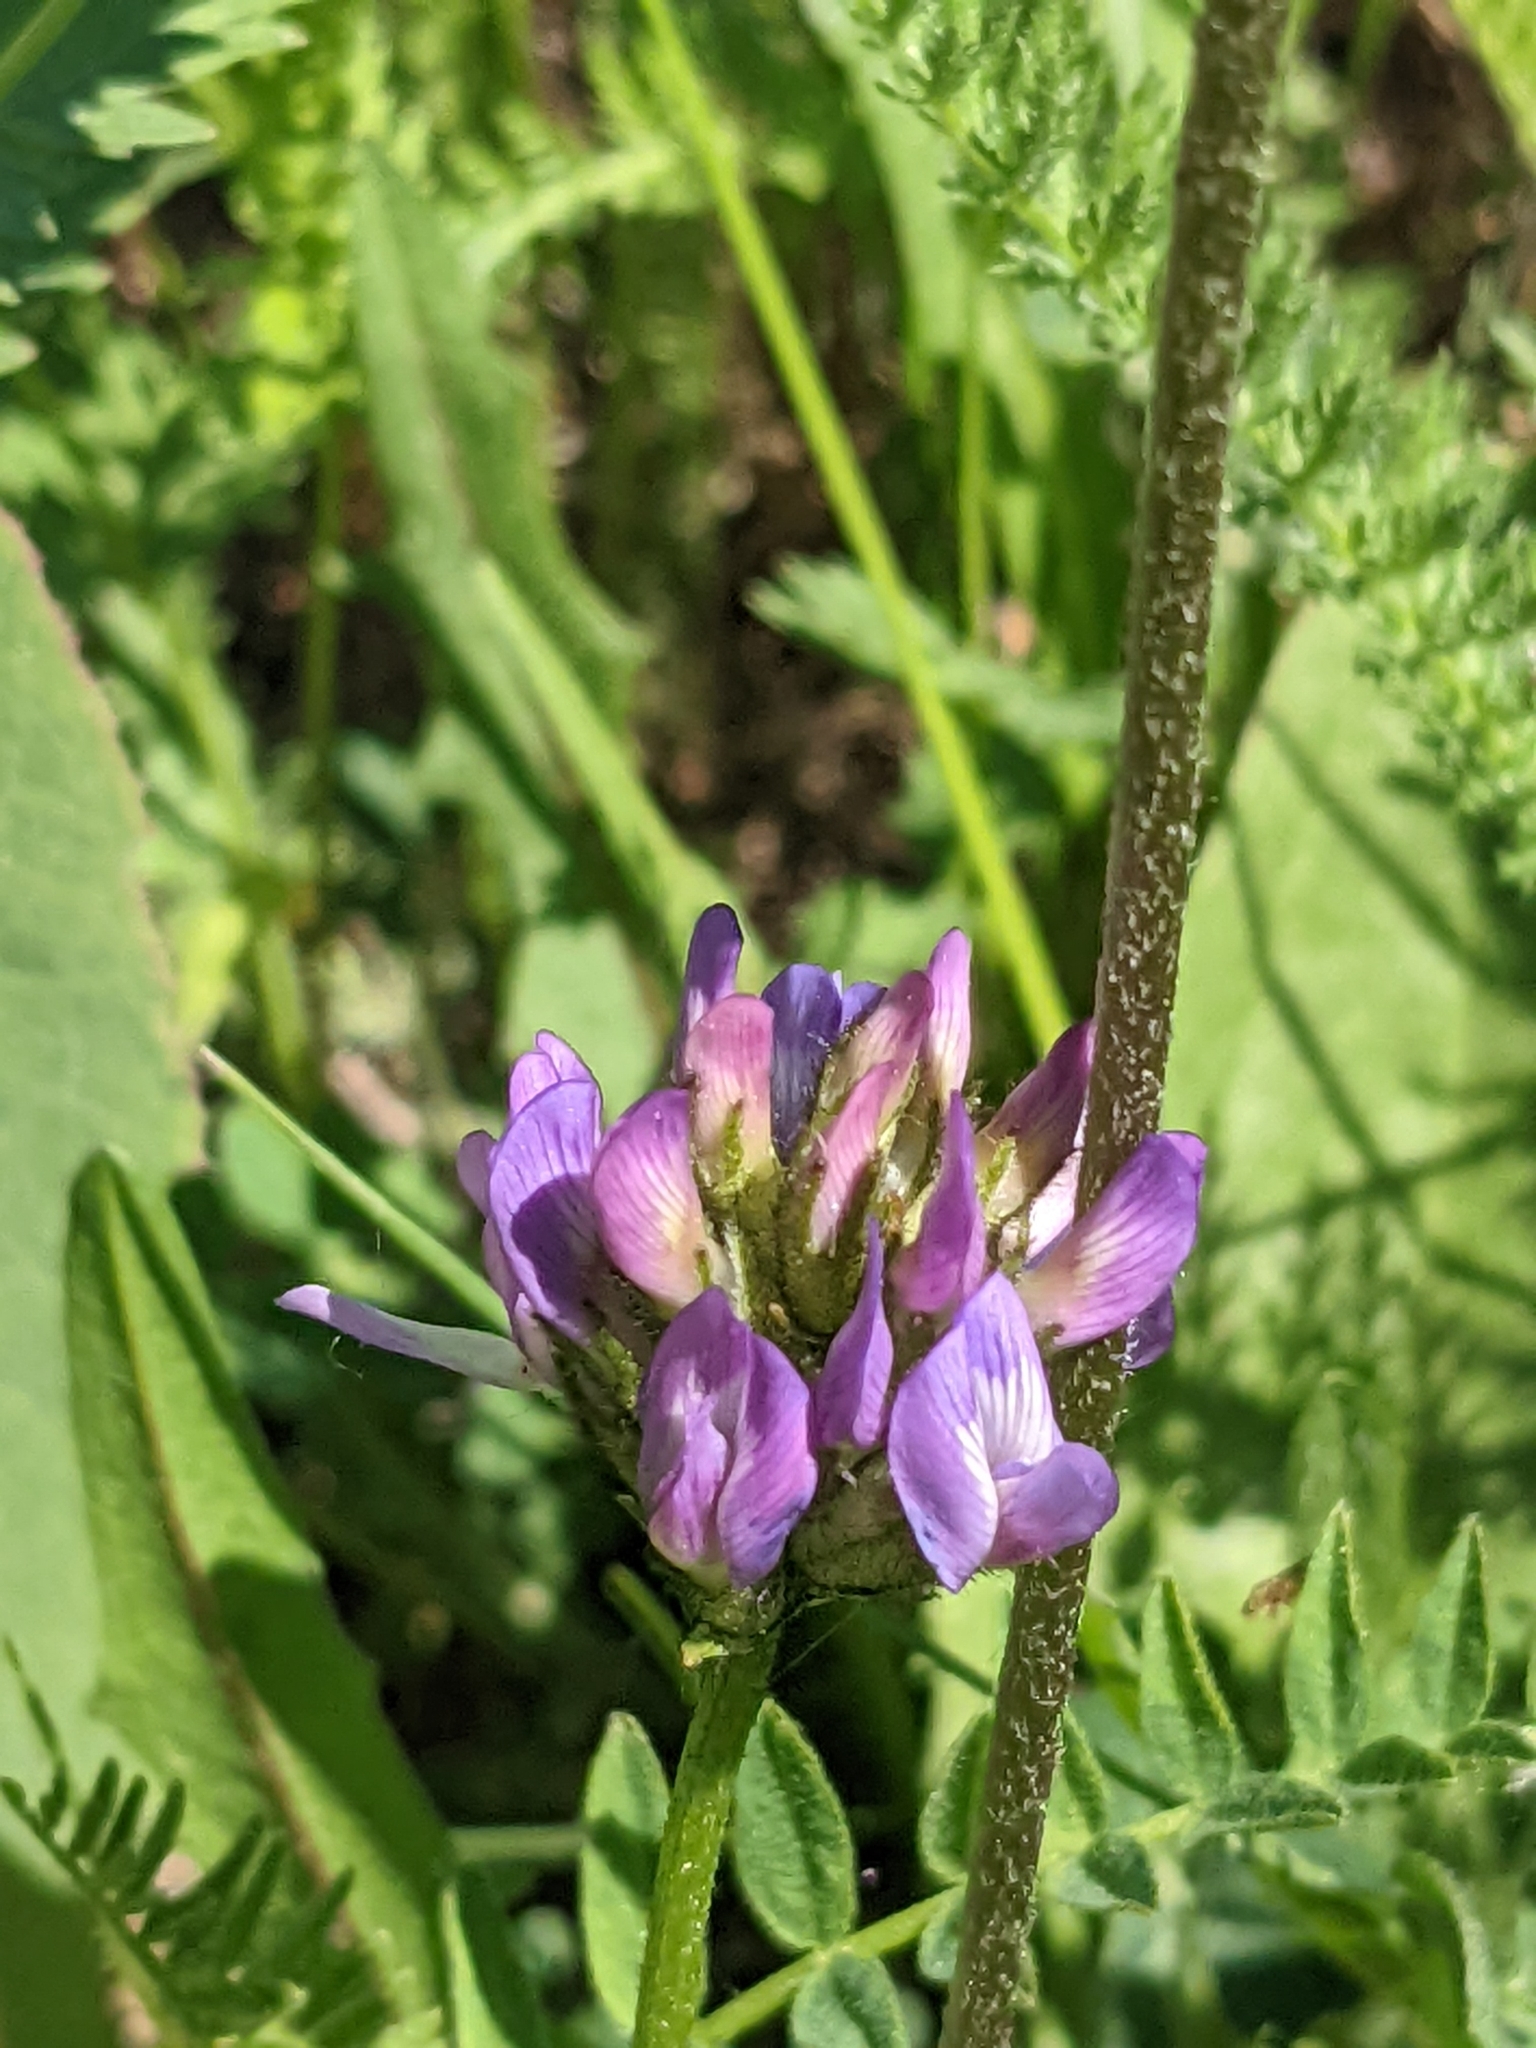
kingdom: Plantae
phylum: Tracheophyta
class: Magnoliopsida
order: Fabales
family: Fabaceae
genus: Astragalus
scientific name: Astragalus danicus
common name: Purple milk-vetch
